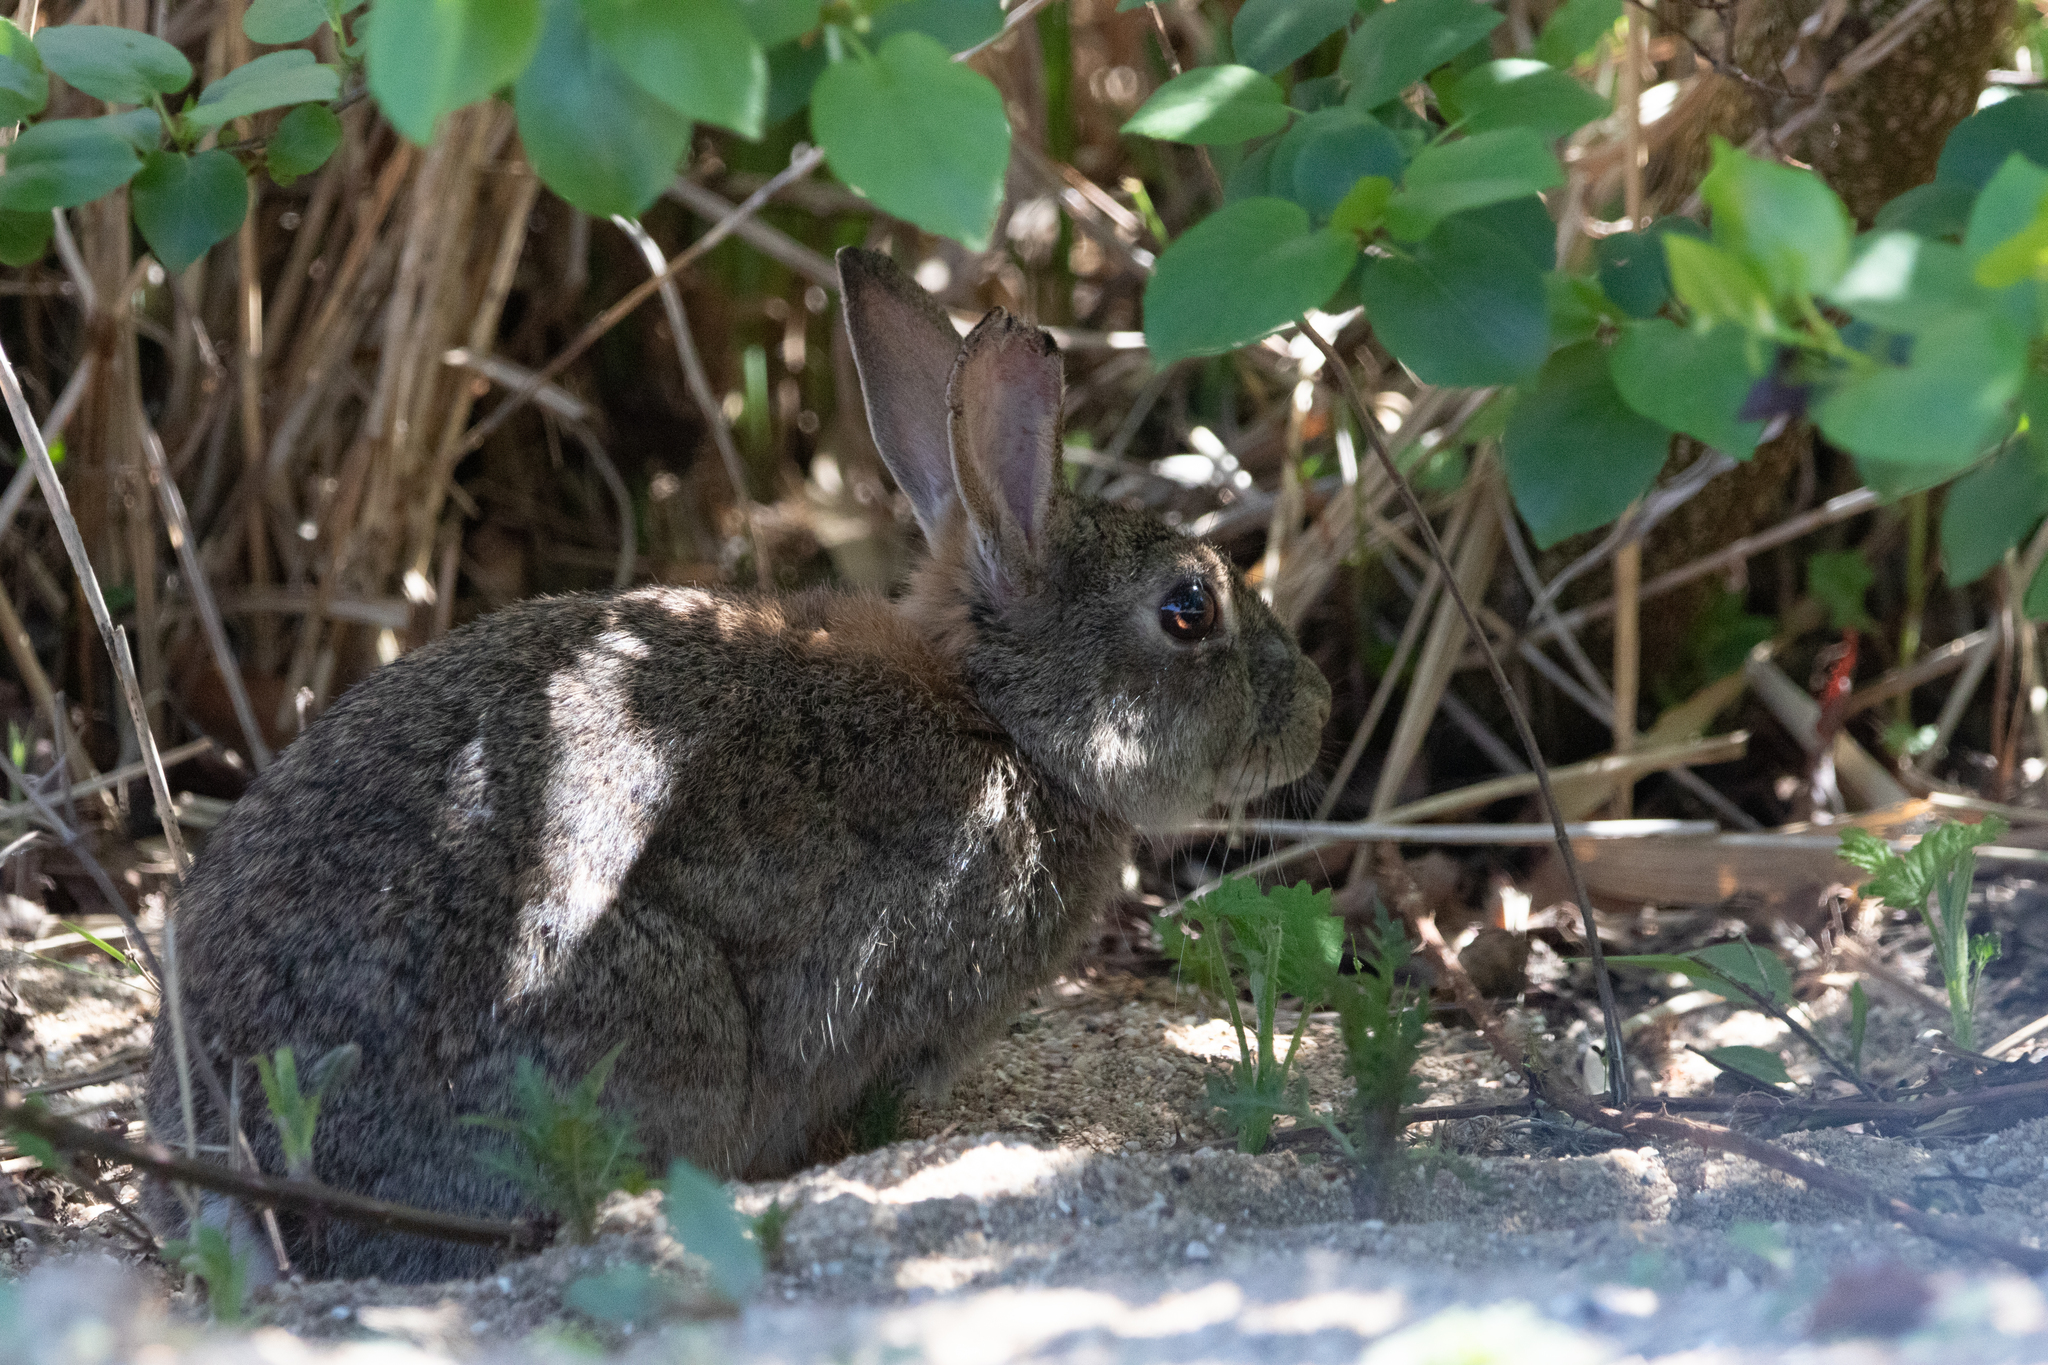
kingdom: Animalia
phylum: Chordata
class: Mammalia
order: Lagomorpha
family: Leporidae
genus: Oryctolagus
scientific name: Oryctolagus cuniculus
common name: European rabbit
